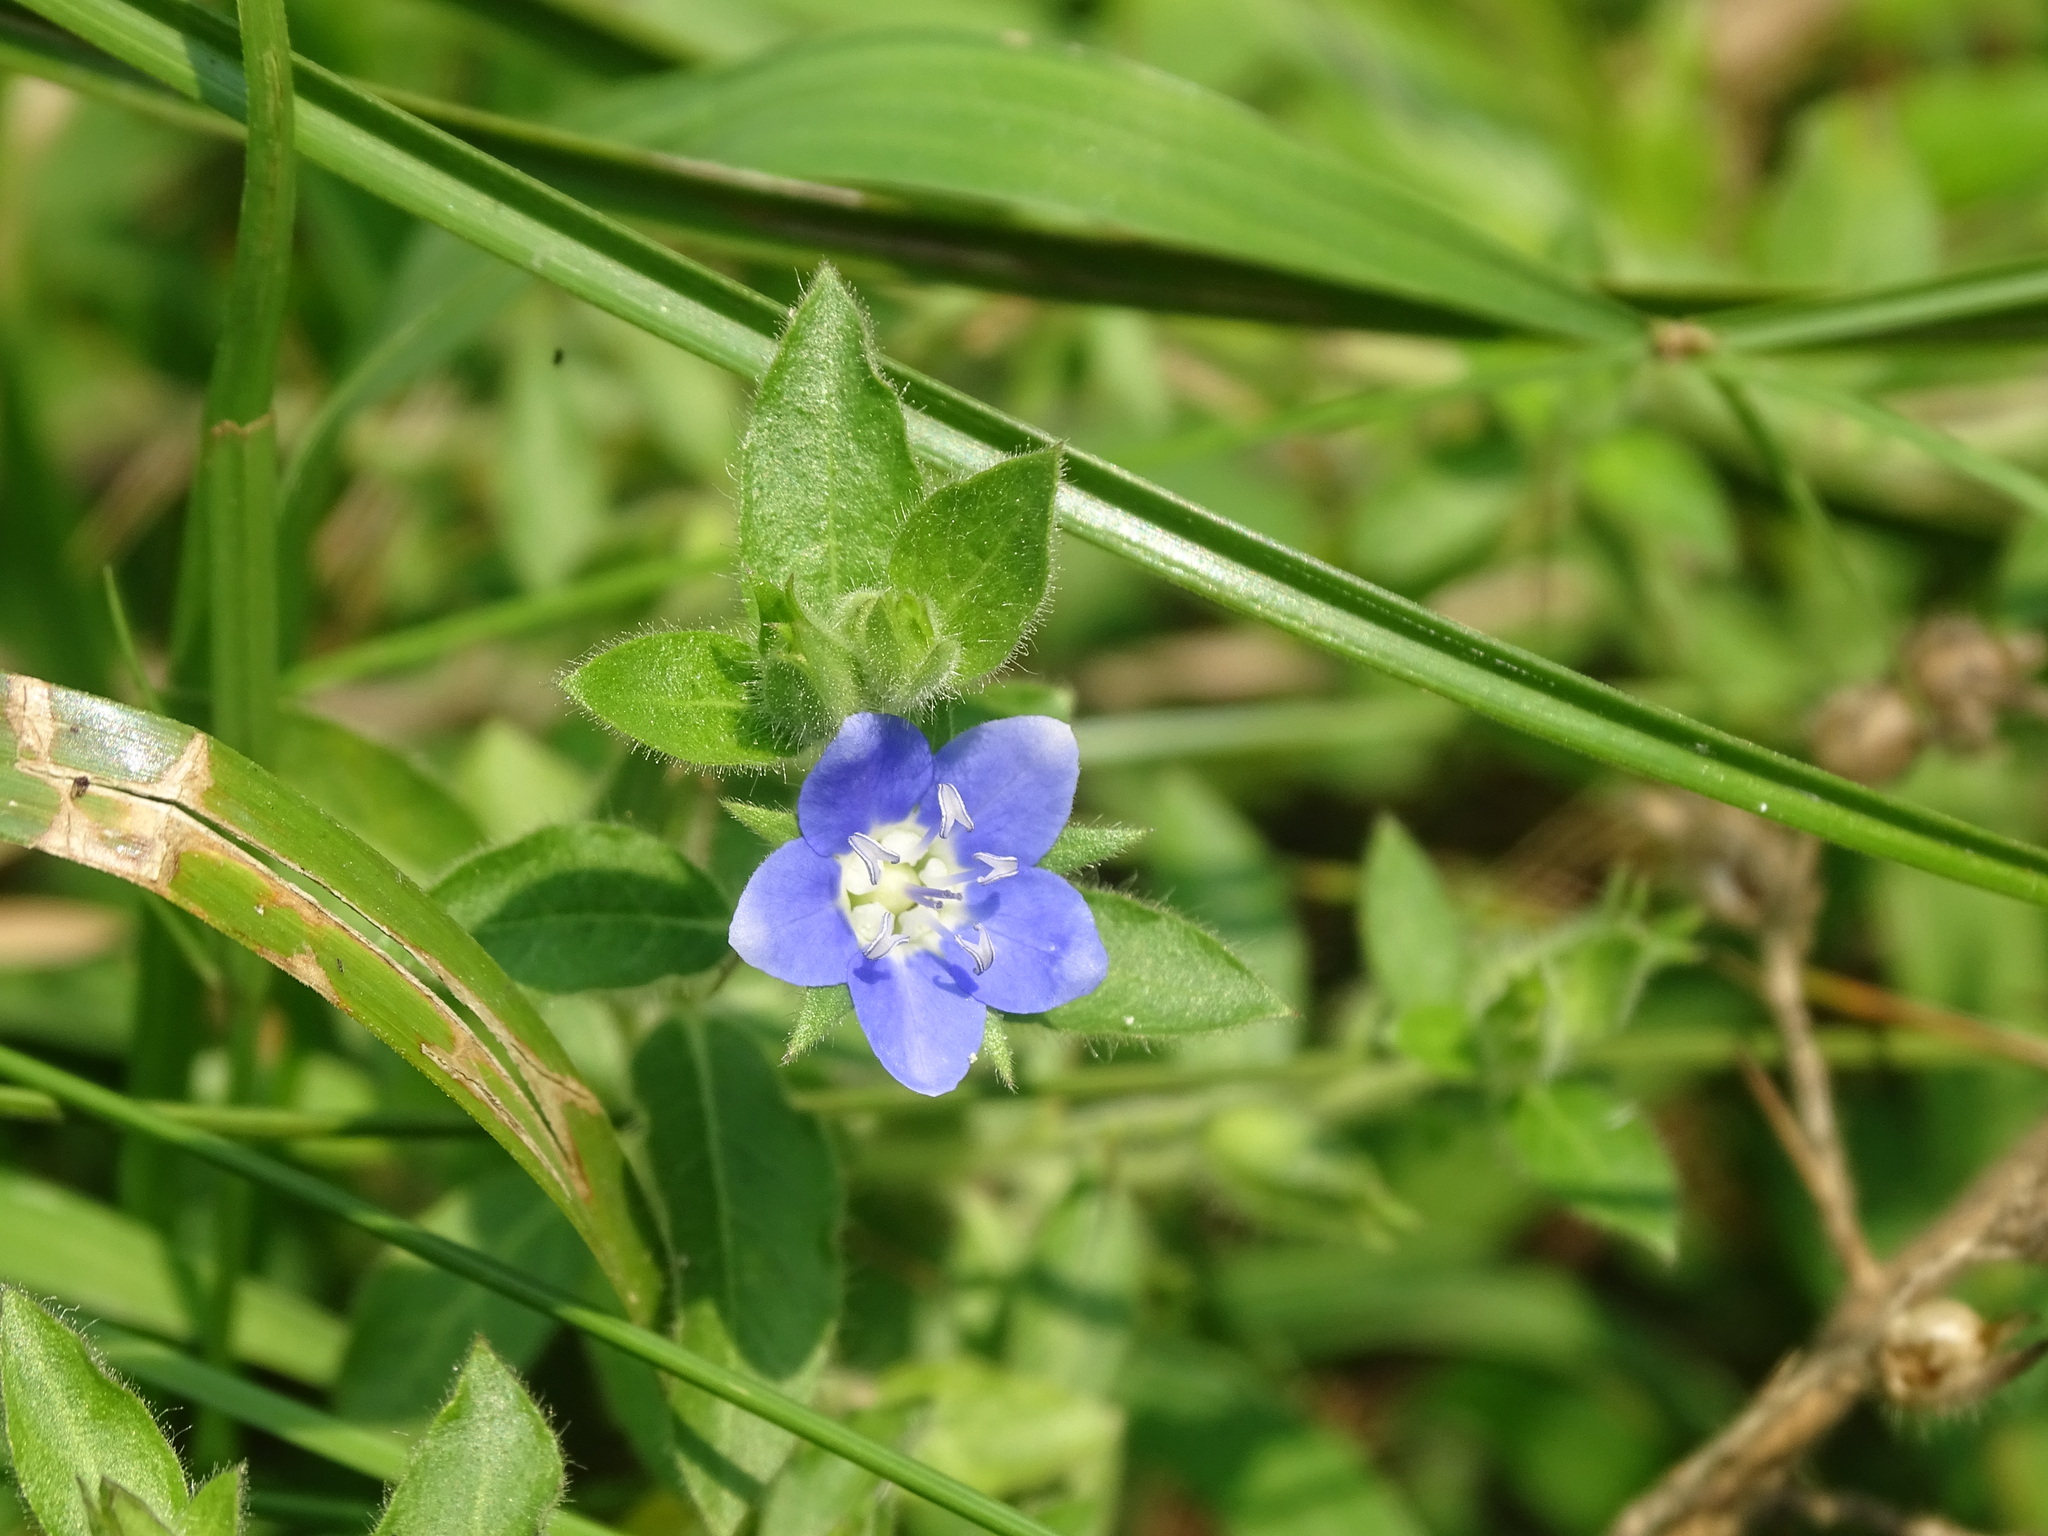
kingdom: Plantae
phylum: Tracheophyta
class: Magnoliopsida
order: Solanales
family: Hydroleaceae
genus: Hydrolea
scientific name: Hydrolea spinosa
